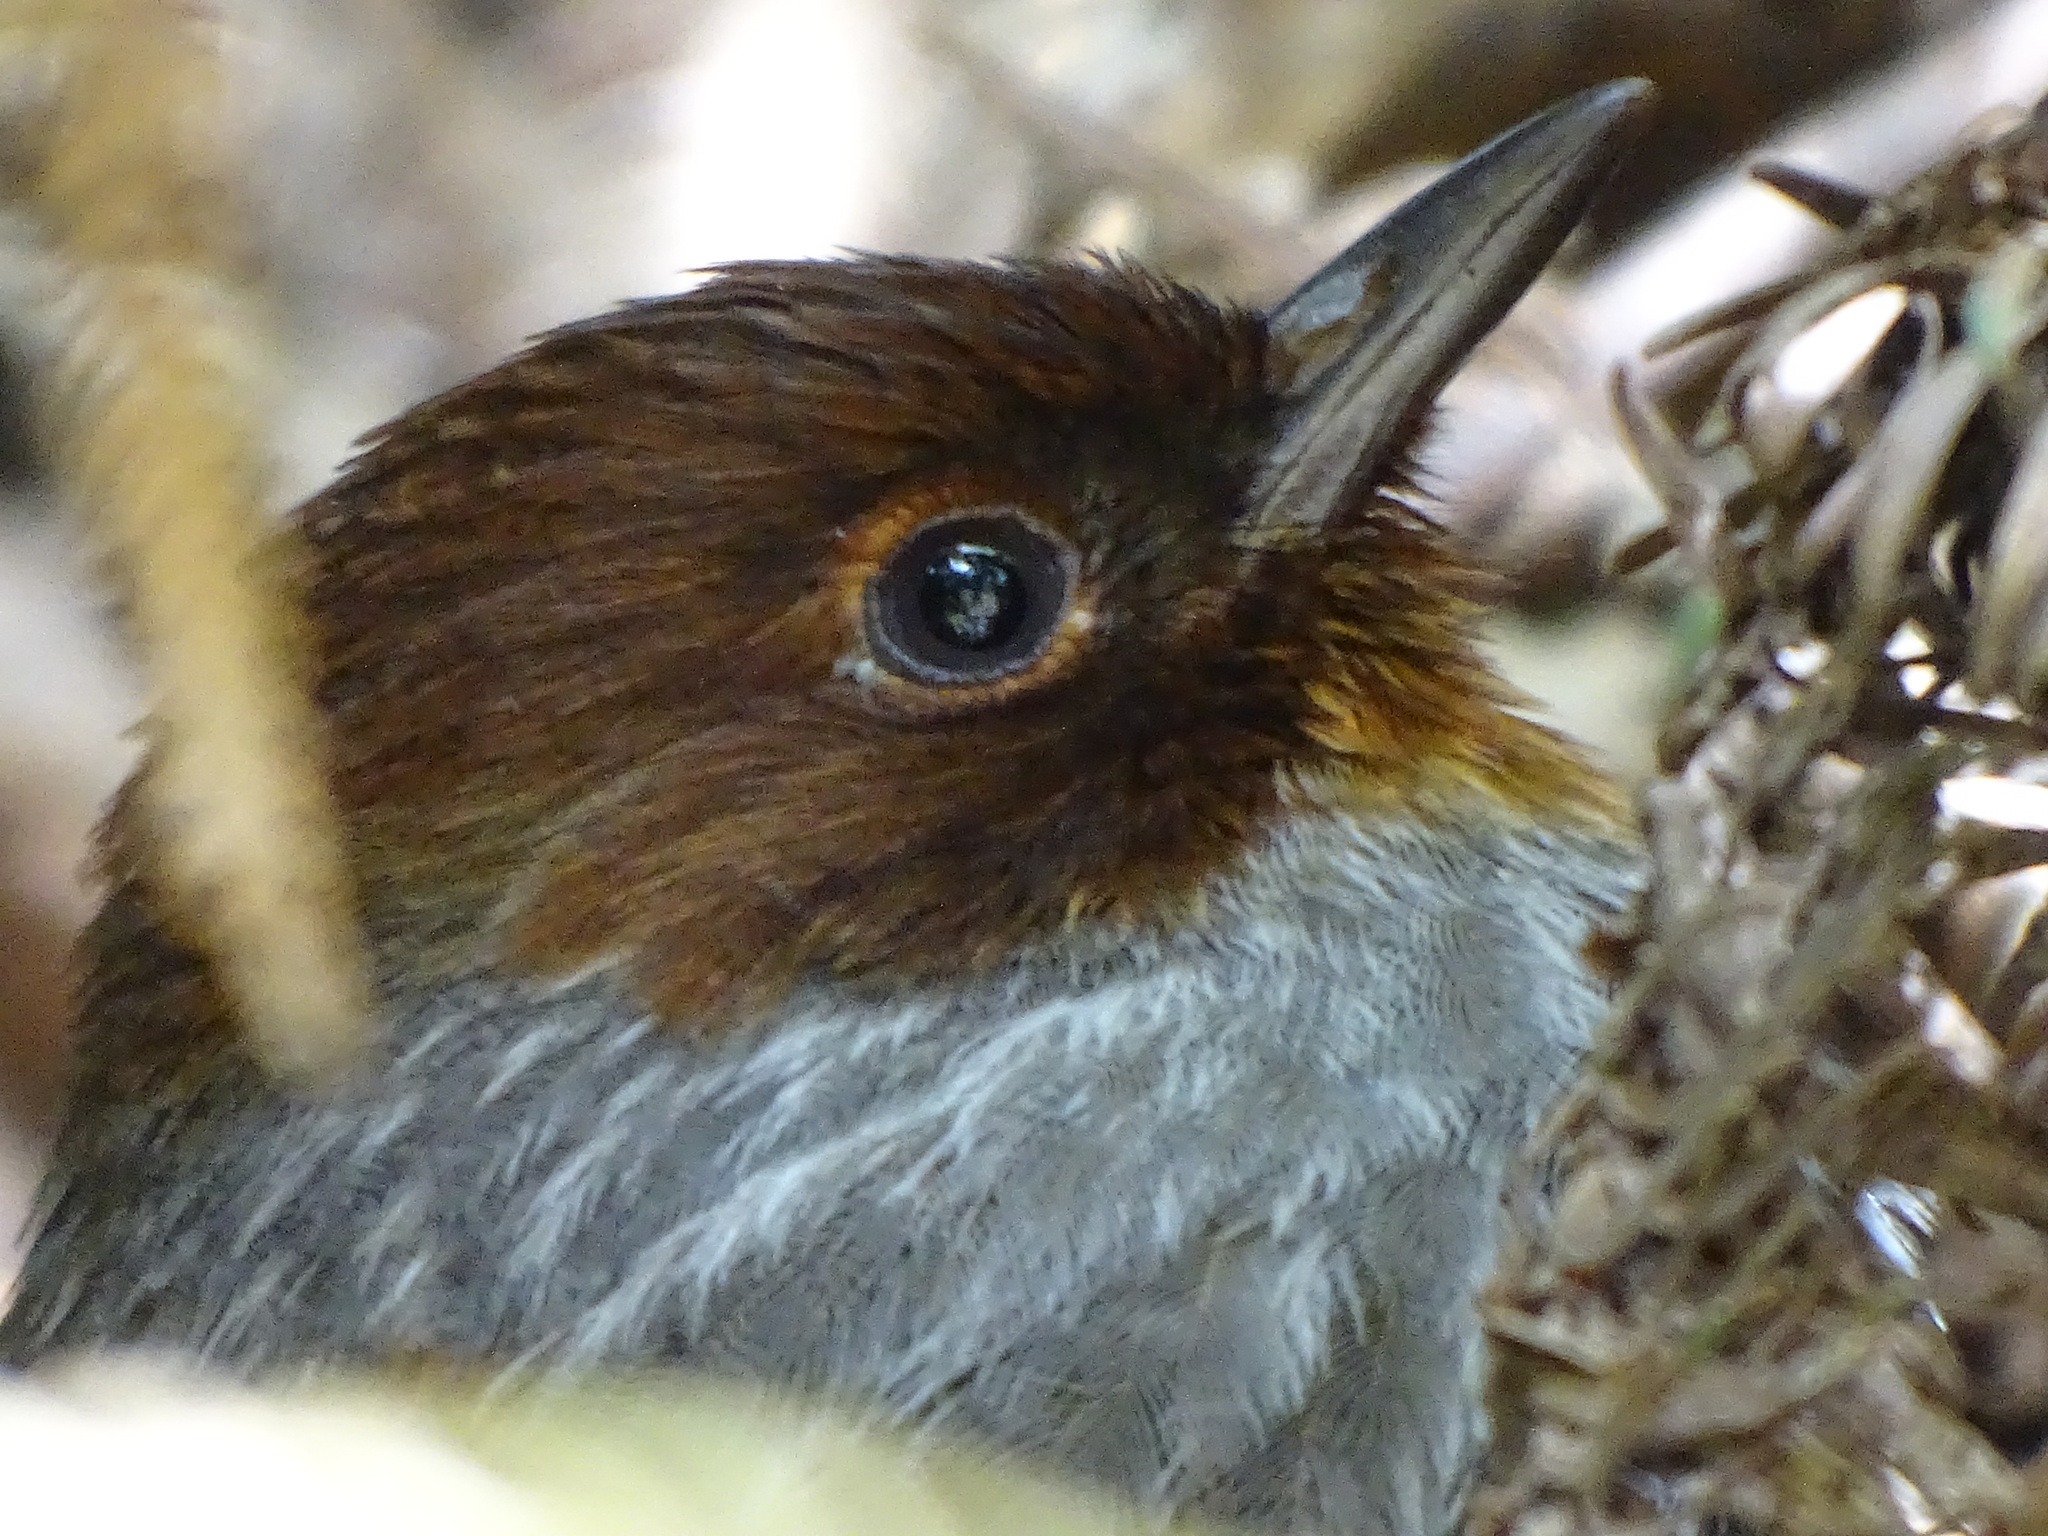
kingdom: Animalia
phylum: Chordata
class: Aves
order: Passeriformes
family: Leiothrichidae
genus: Actinodura
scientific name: Actinodura morrisoniana
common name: Taiwan barwing
